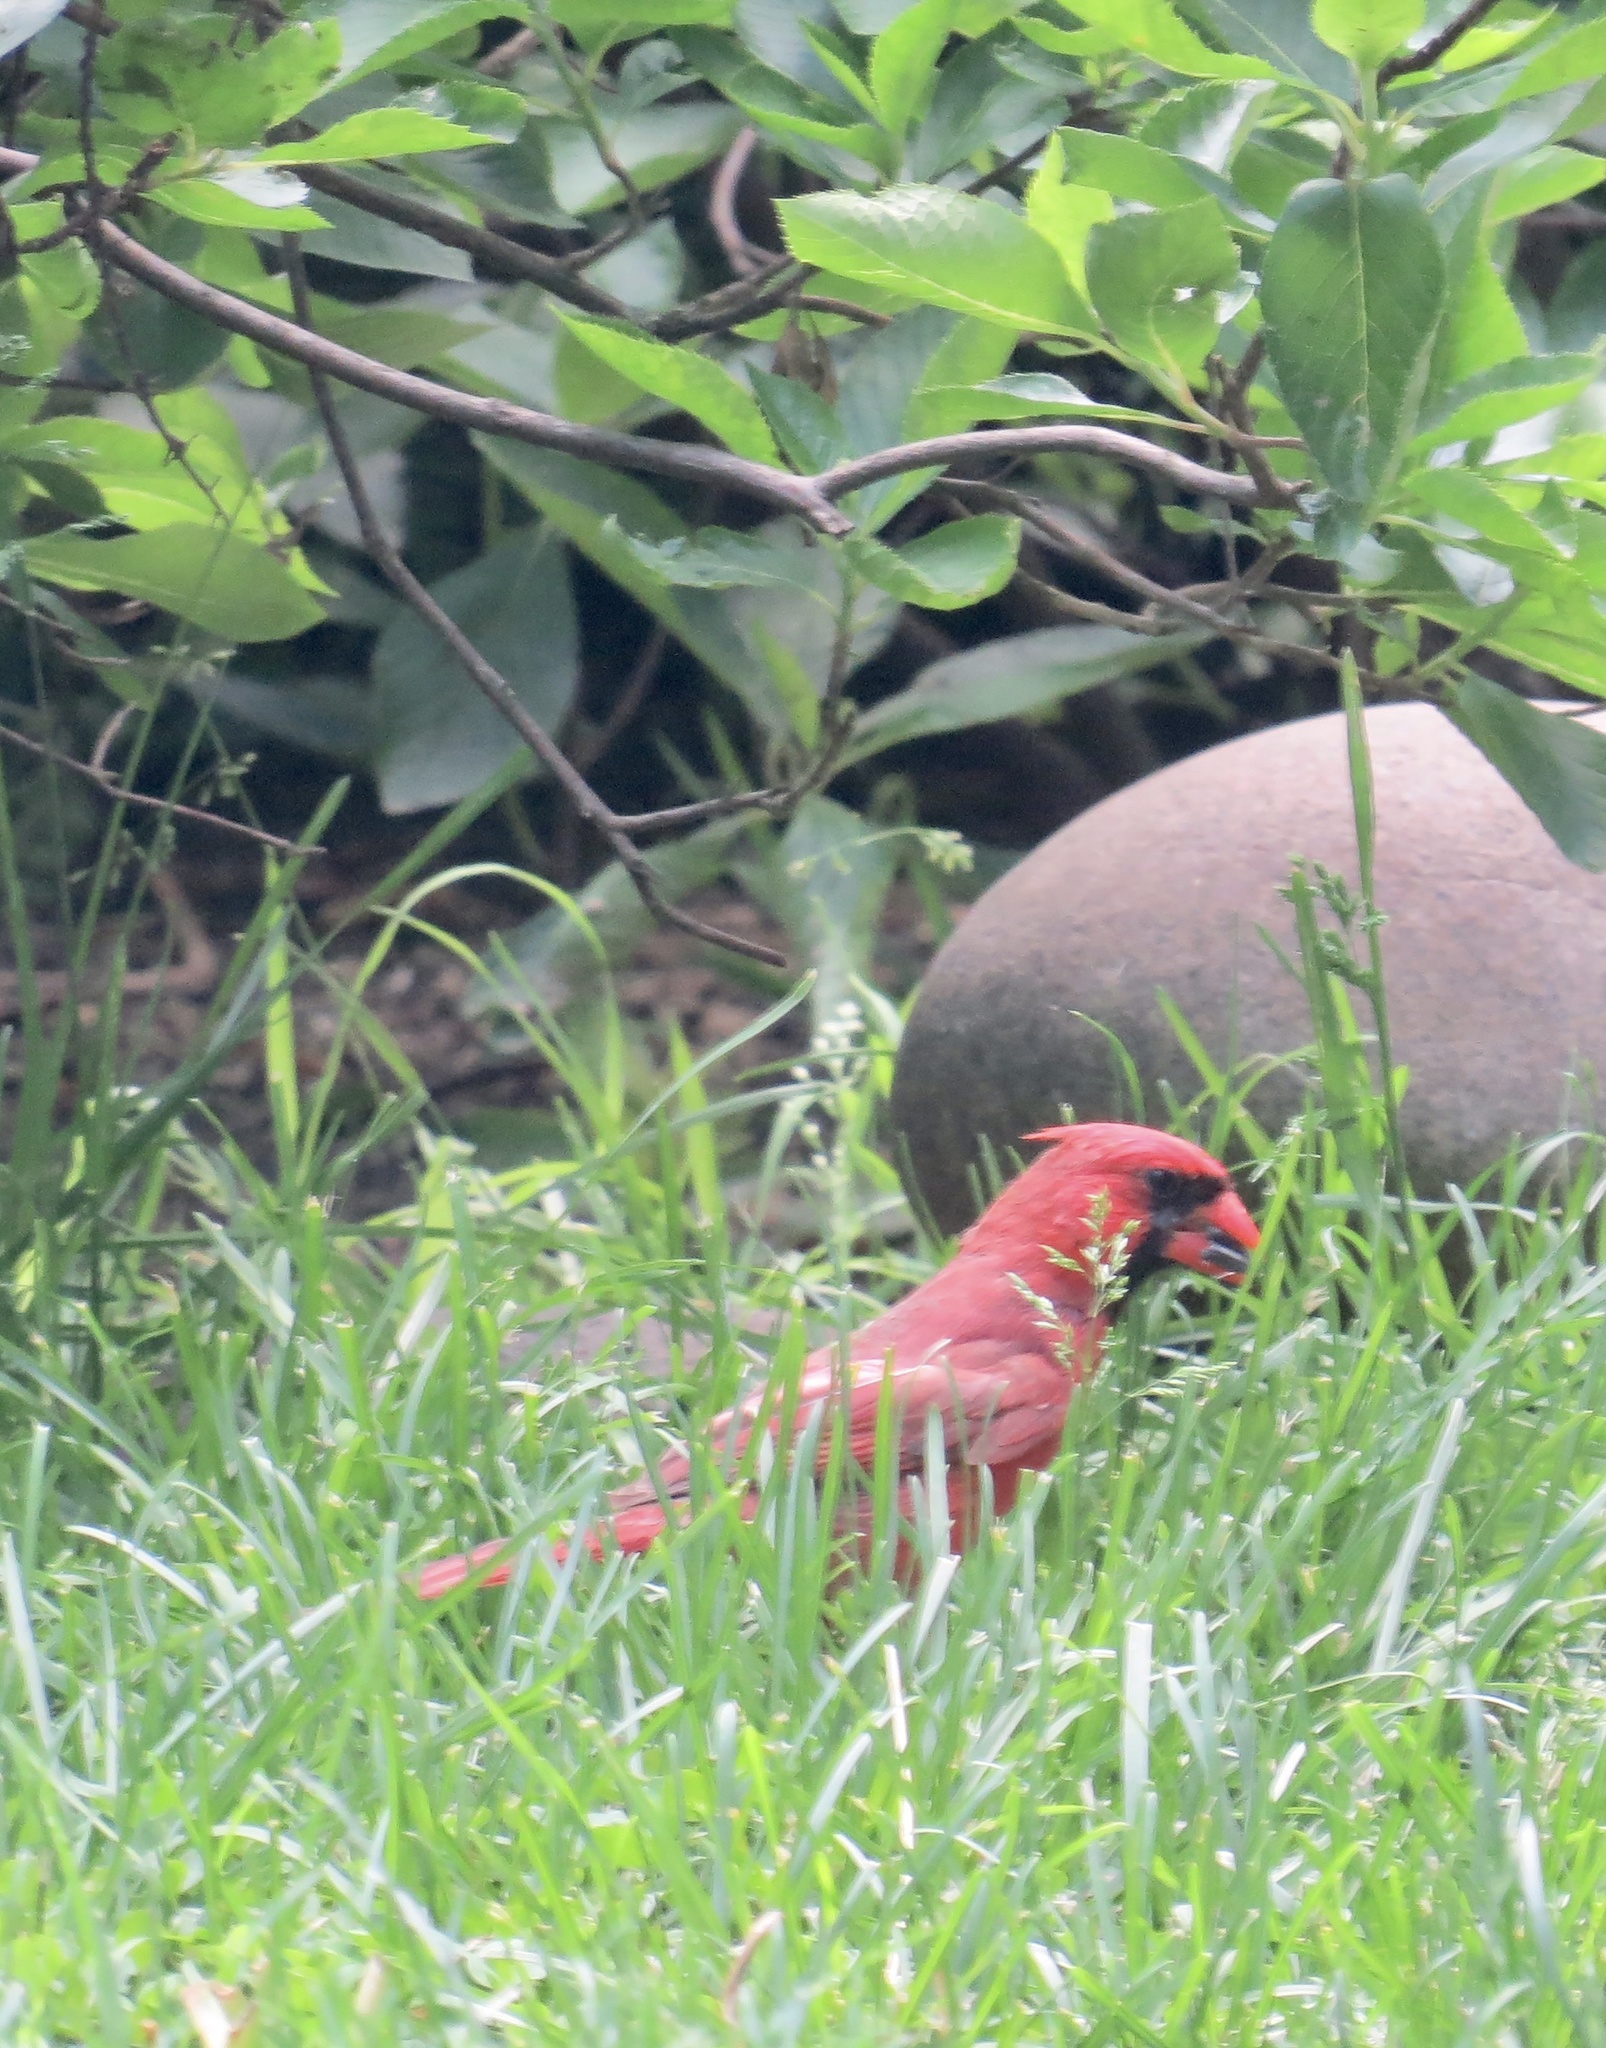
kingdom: Animalia
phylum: Chordata
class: Aves
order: Passeriformes
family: Cardinalidae
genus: Cardinalis
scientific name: Cardinalis cardinalis
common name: Northern cardinal
